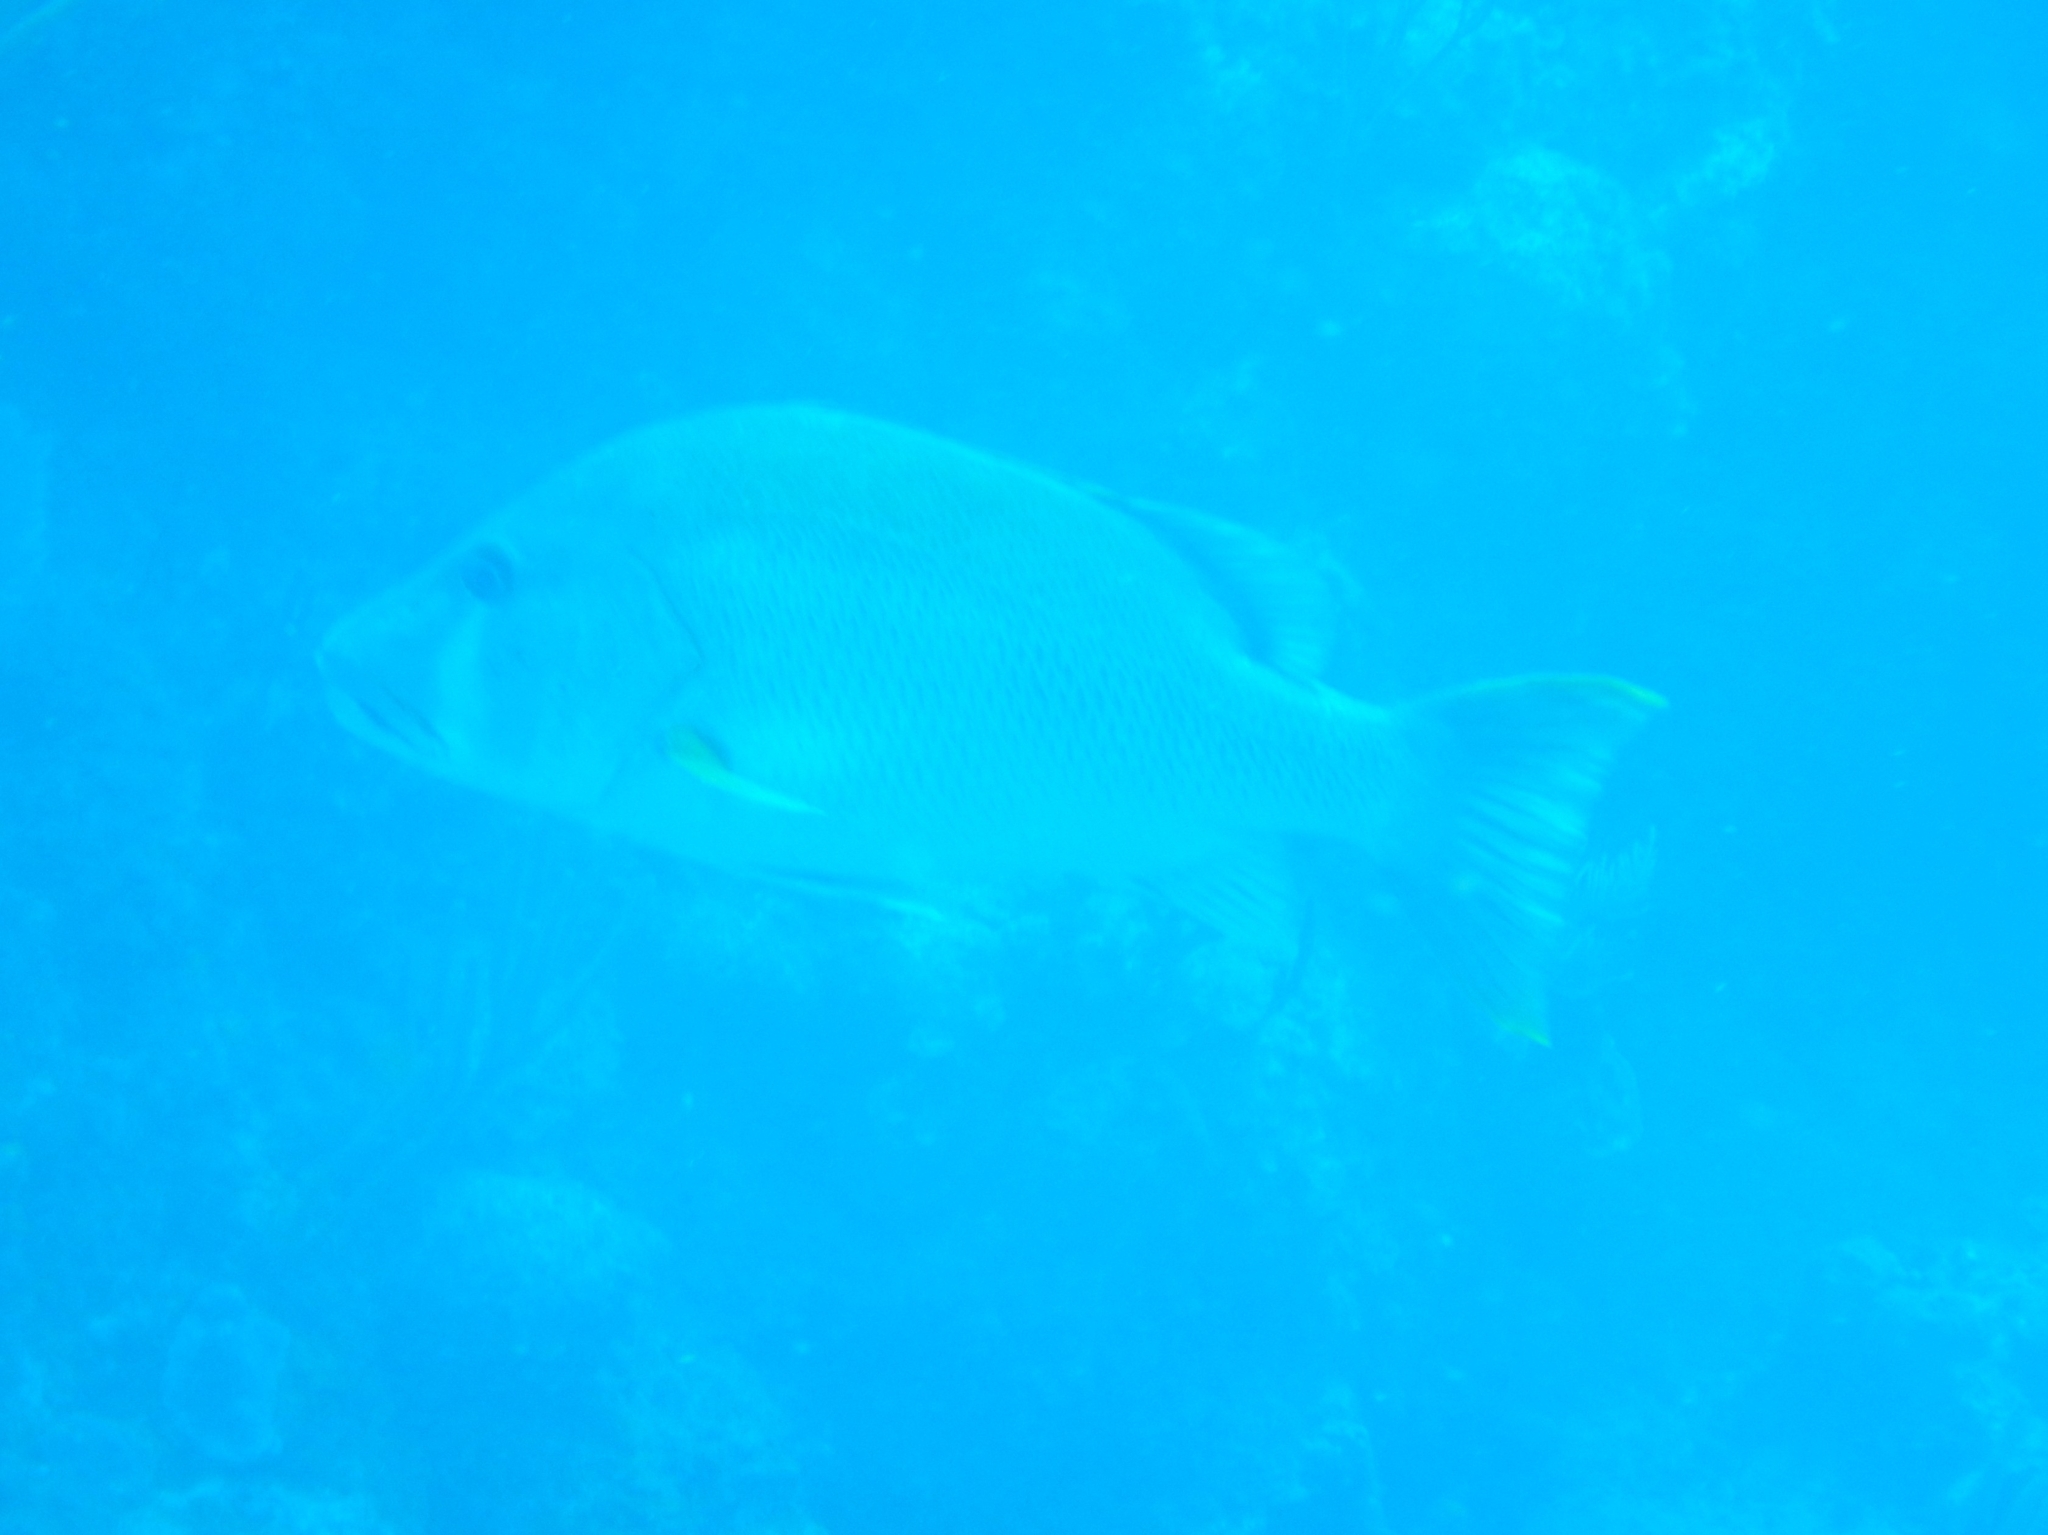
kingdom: Animalia
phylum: Chordata
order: Perciformes
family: Lutjanidae
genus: Lutjanus
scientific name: Lutjanus jocu
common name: Dog snapper
